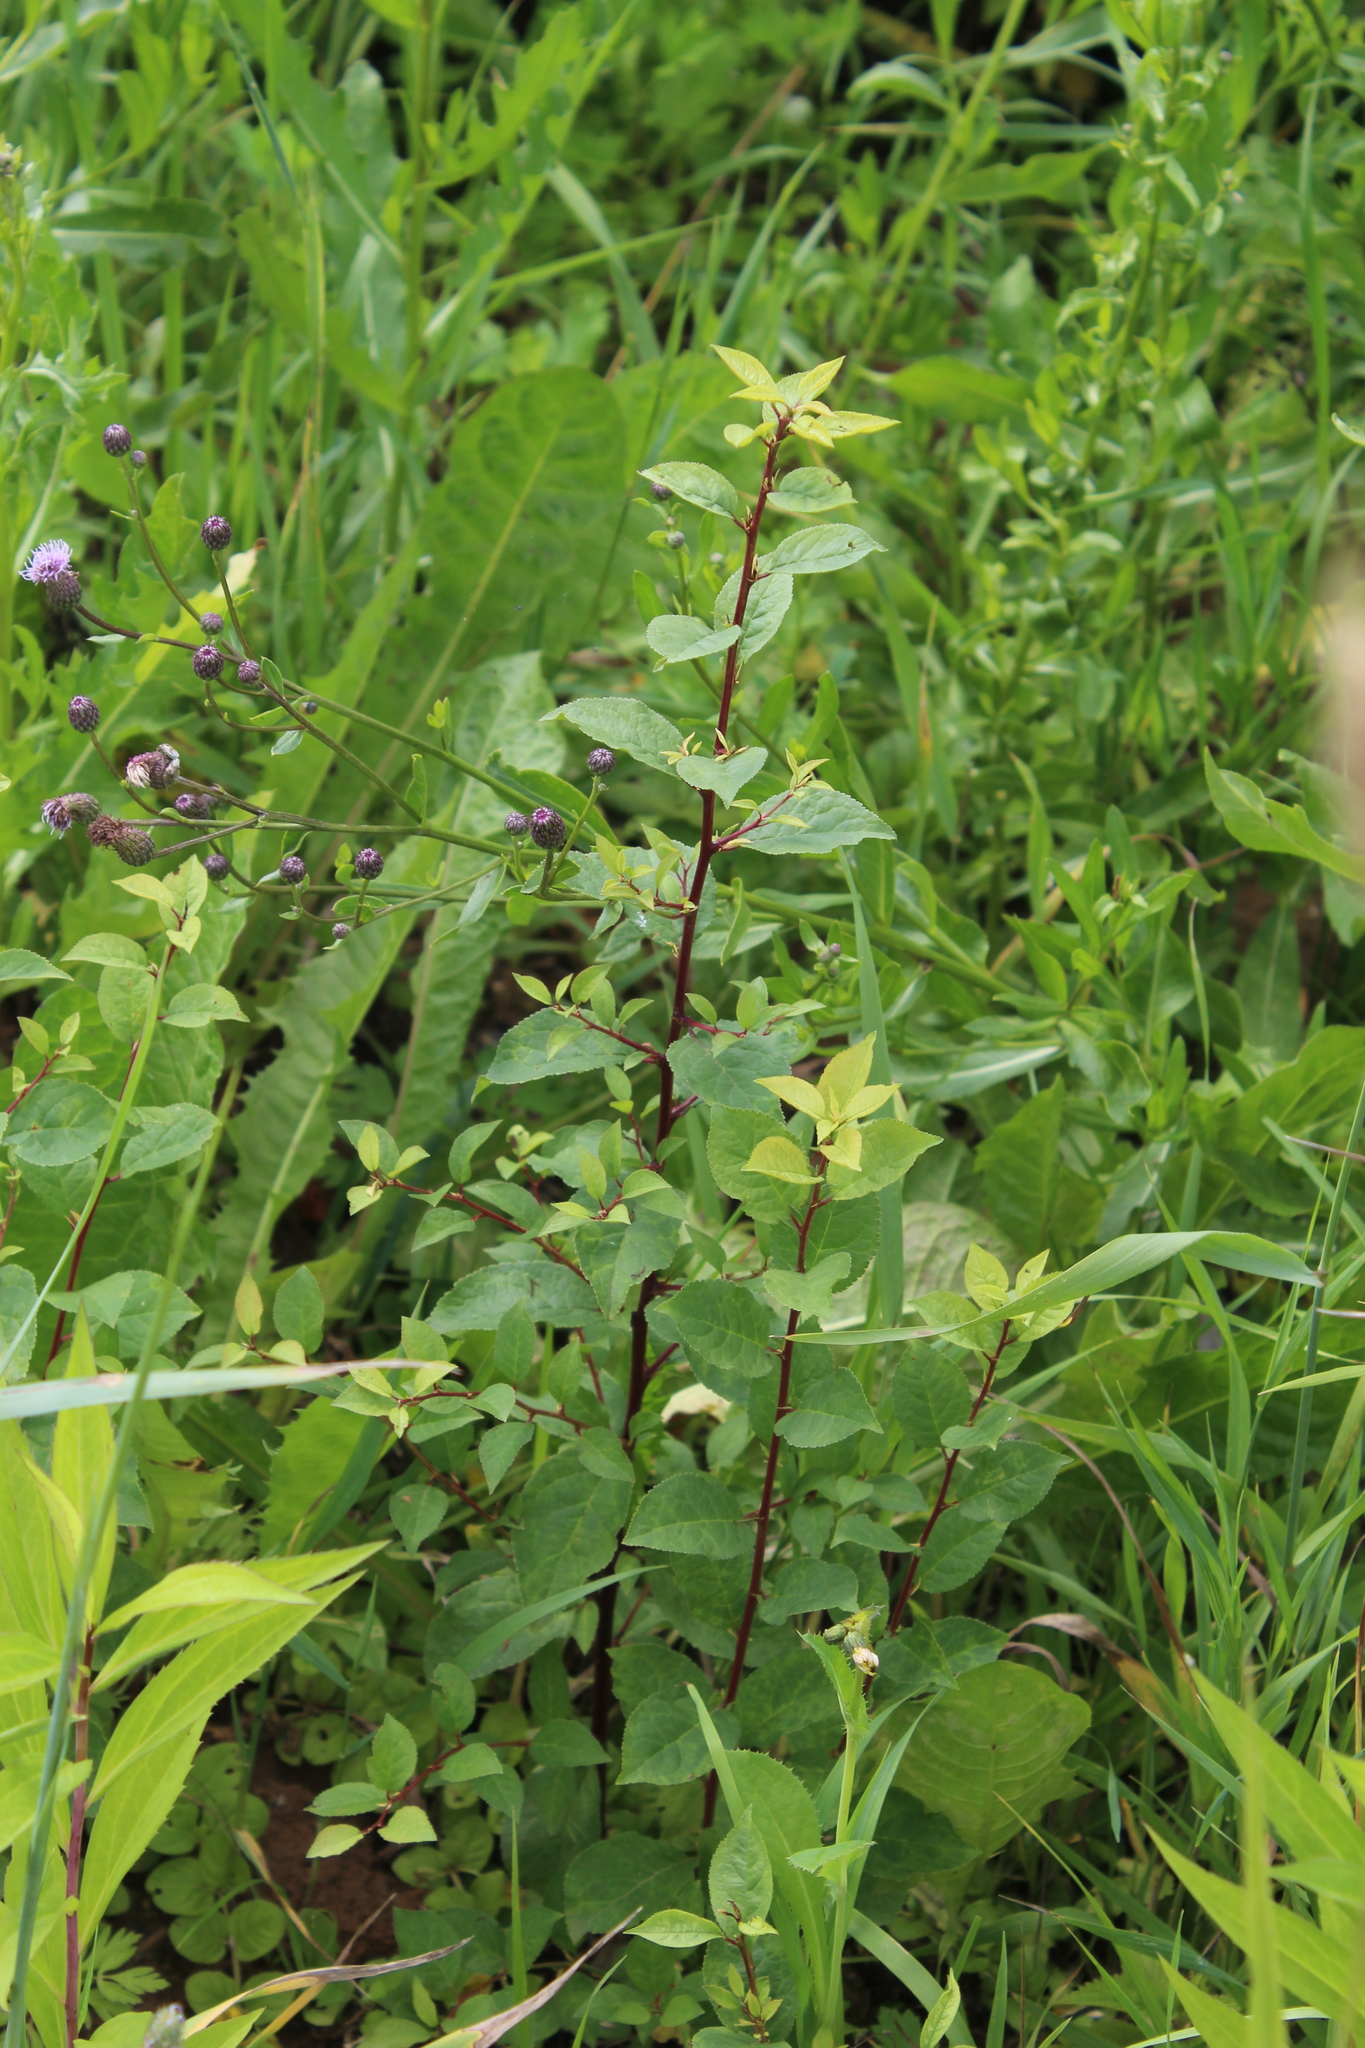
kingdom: Plantae
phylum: Tracheophyta
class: Magnoliopsida
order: Rosales
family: Rosaceae
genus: Prunus
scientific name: Prunus domestica
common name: Wild plum
